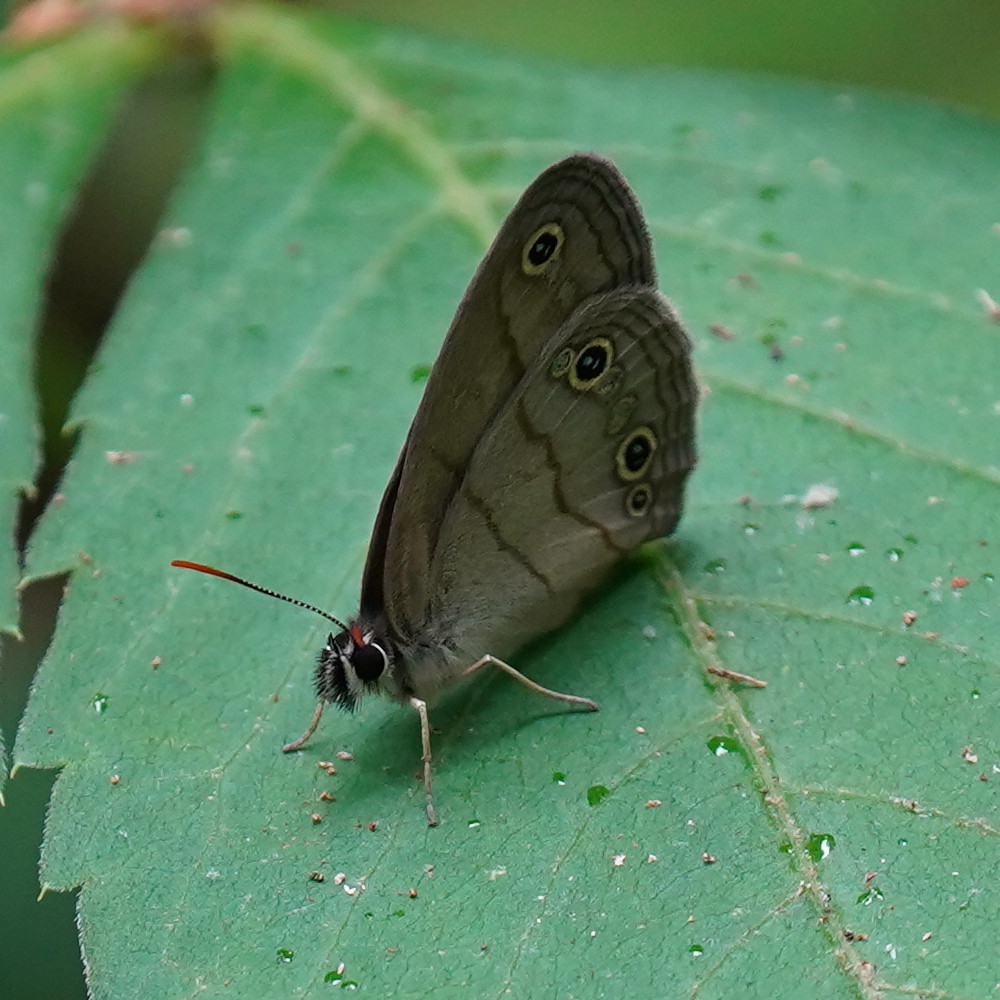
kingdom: Animalia
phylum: Arthropoda
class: Insecta
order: Lepidoptera
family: Nymphalidae
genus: Euptychia
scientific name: Euptychia cymela
